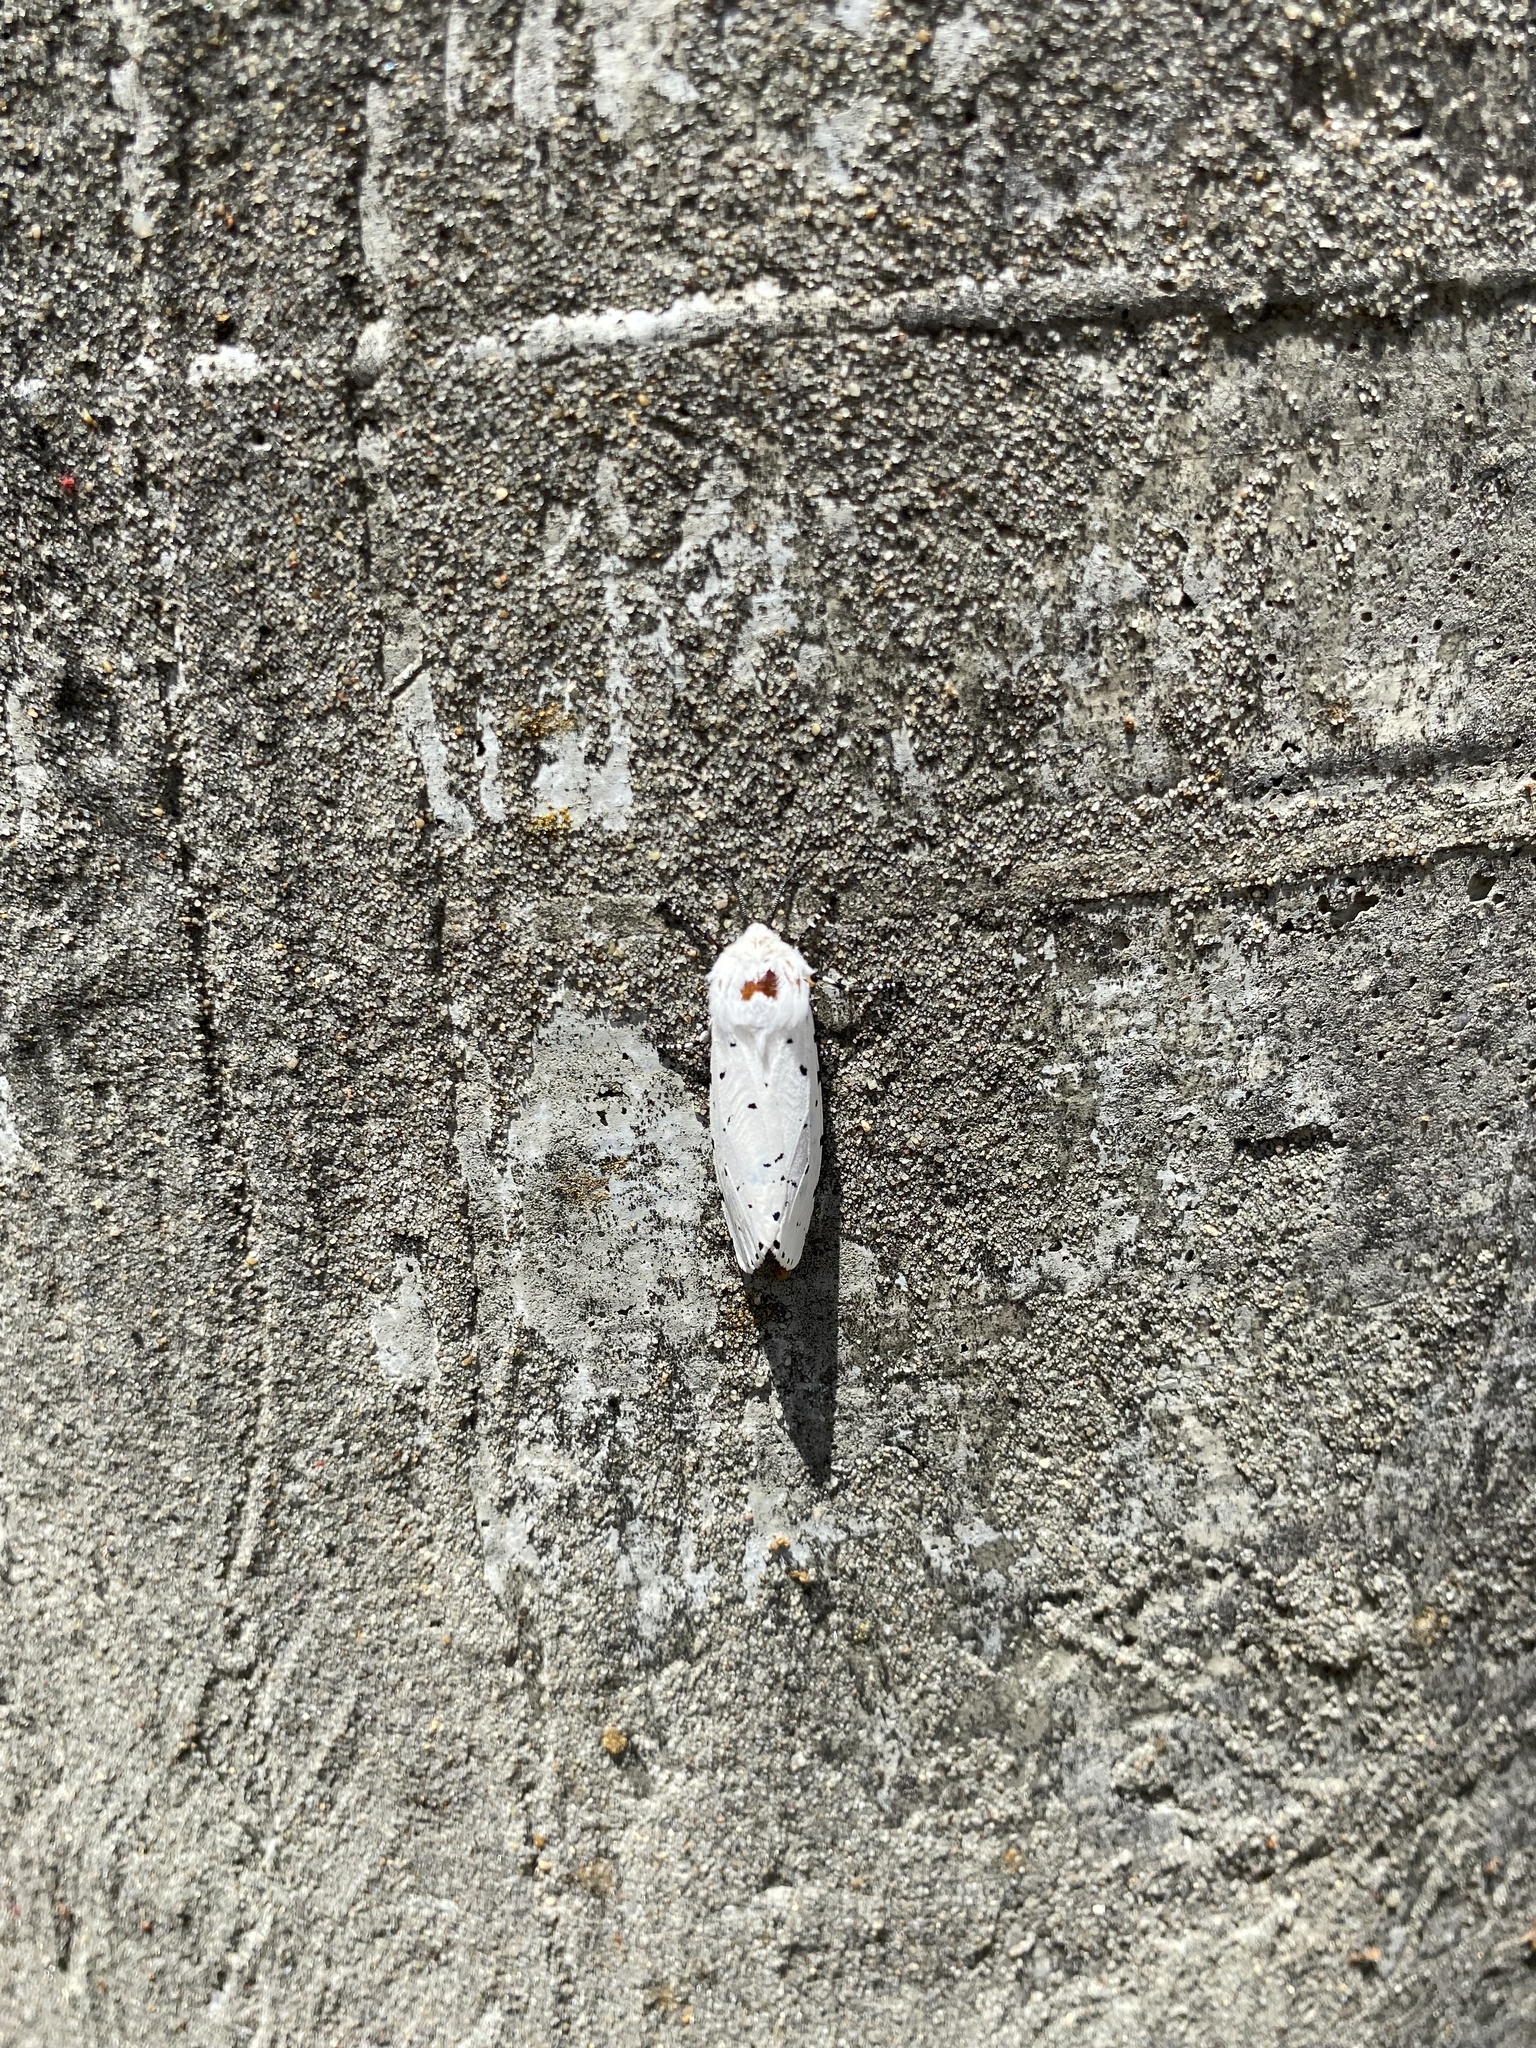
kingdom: Animalia
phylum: Arthropoda
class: Insecta
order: Lepidoptera
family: Erebidae
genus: Estigmene
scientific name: Estigmene acrea
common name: Salt marsh moth
